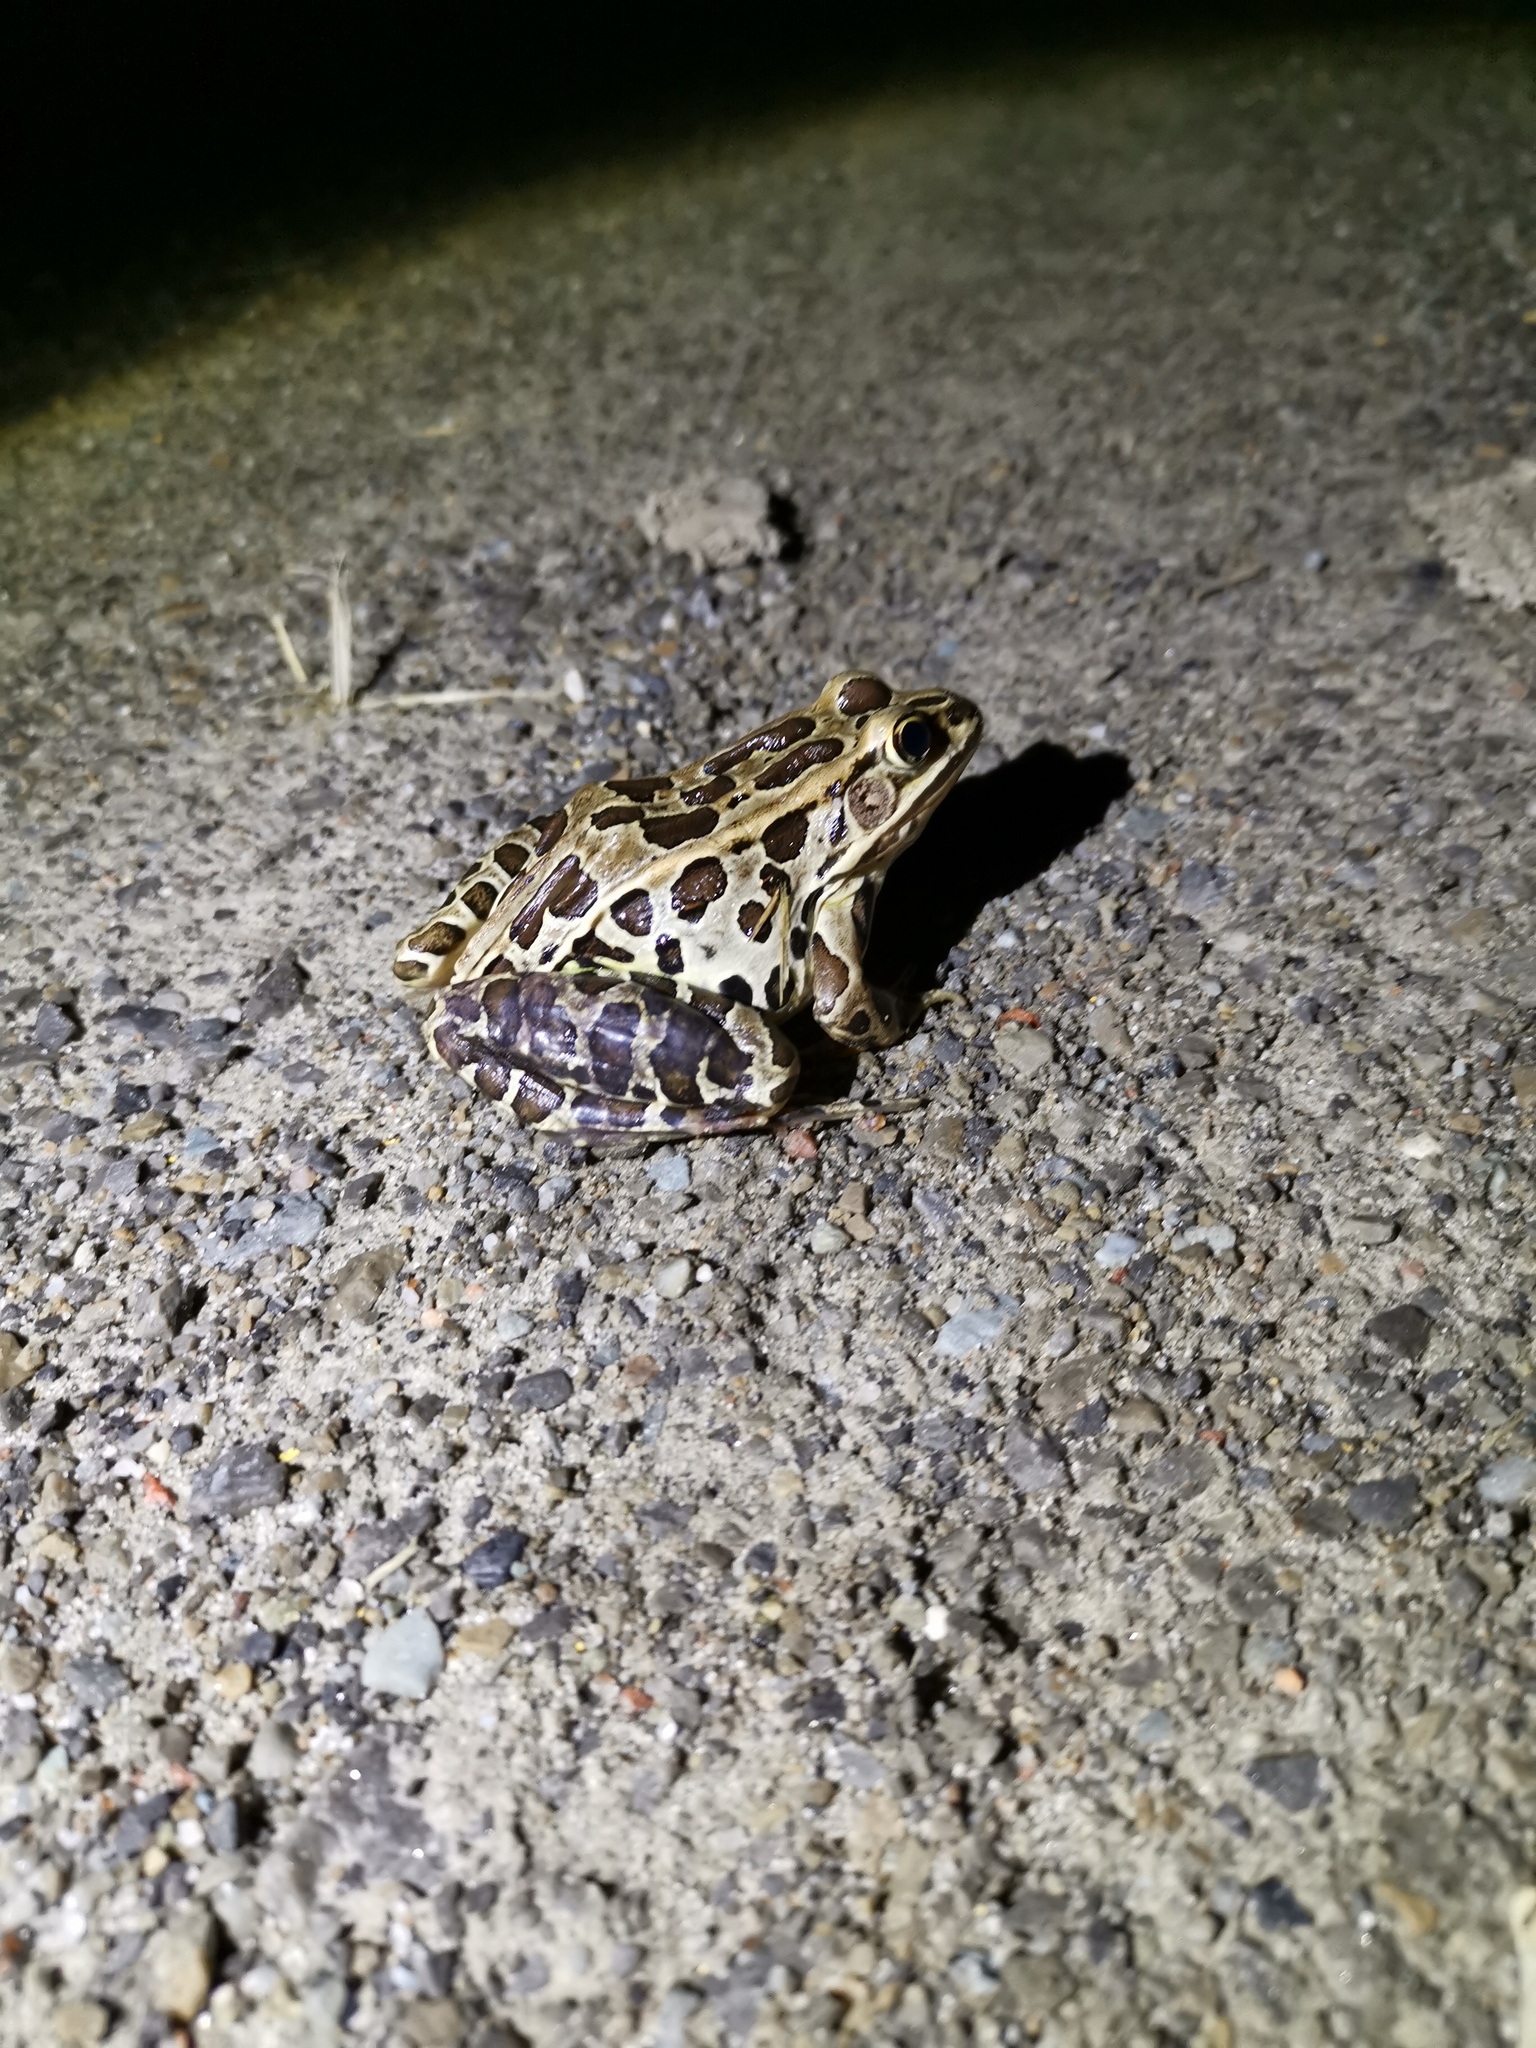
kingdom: Animalia
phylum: Chordata
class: Amphibia
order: Anura
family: Ranidae
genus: Lithobates
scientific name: Lithobates pipiens
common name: Northern leopard frog
